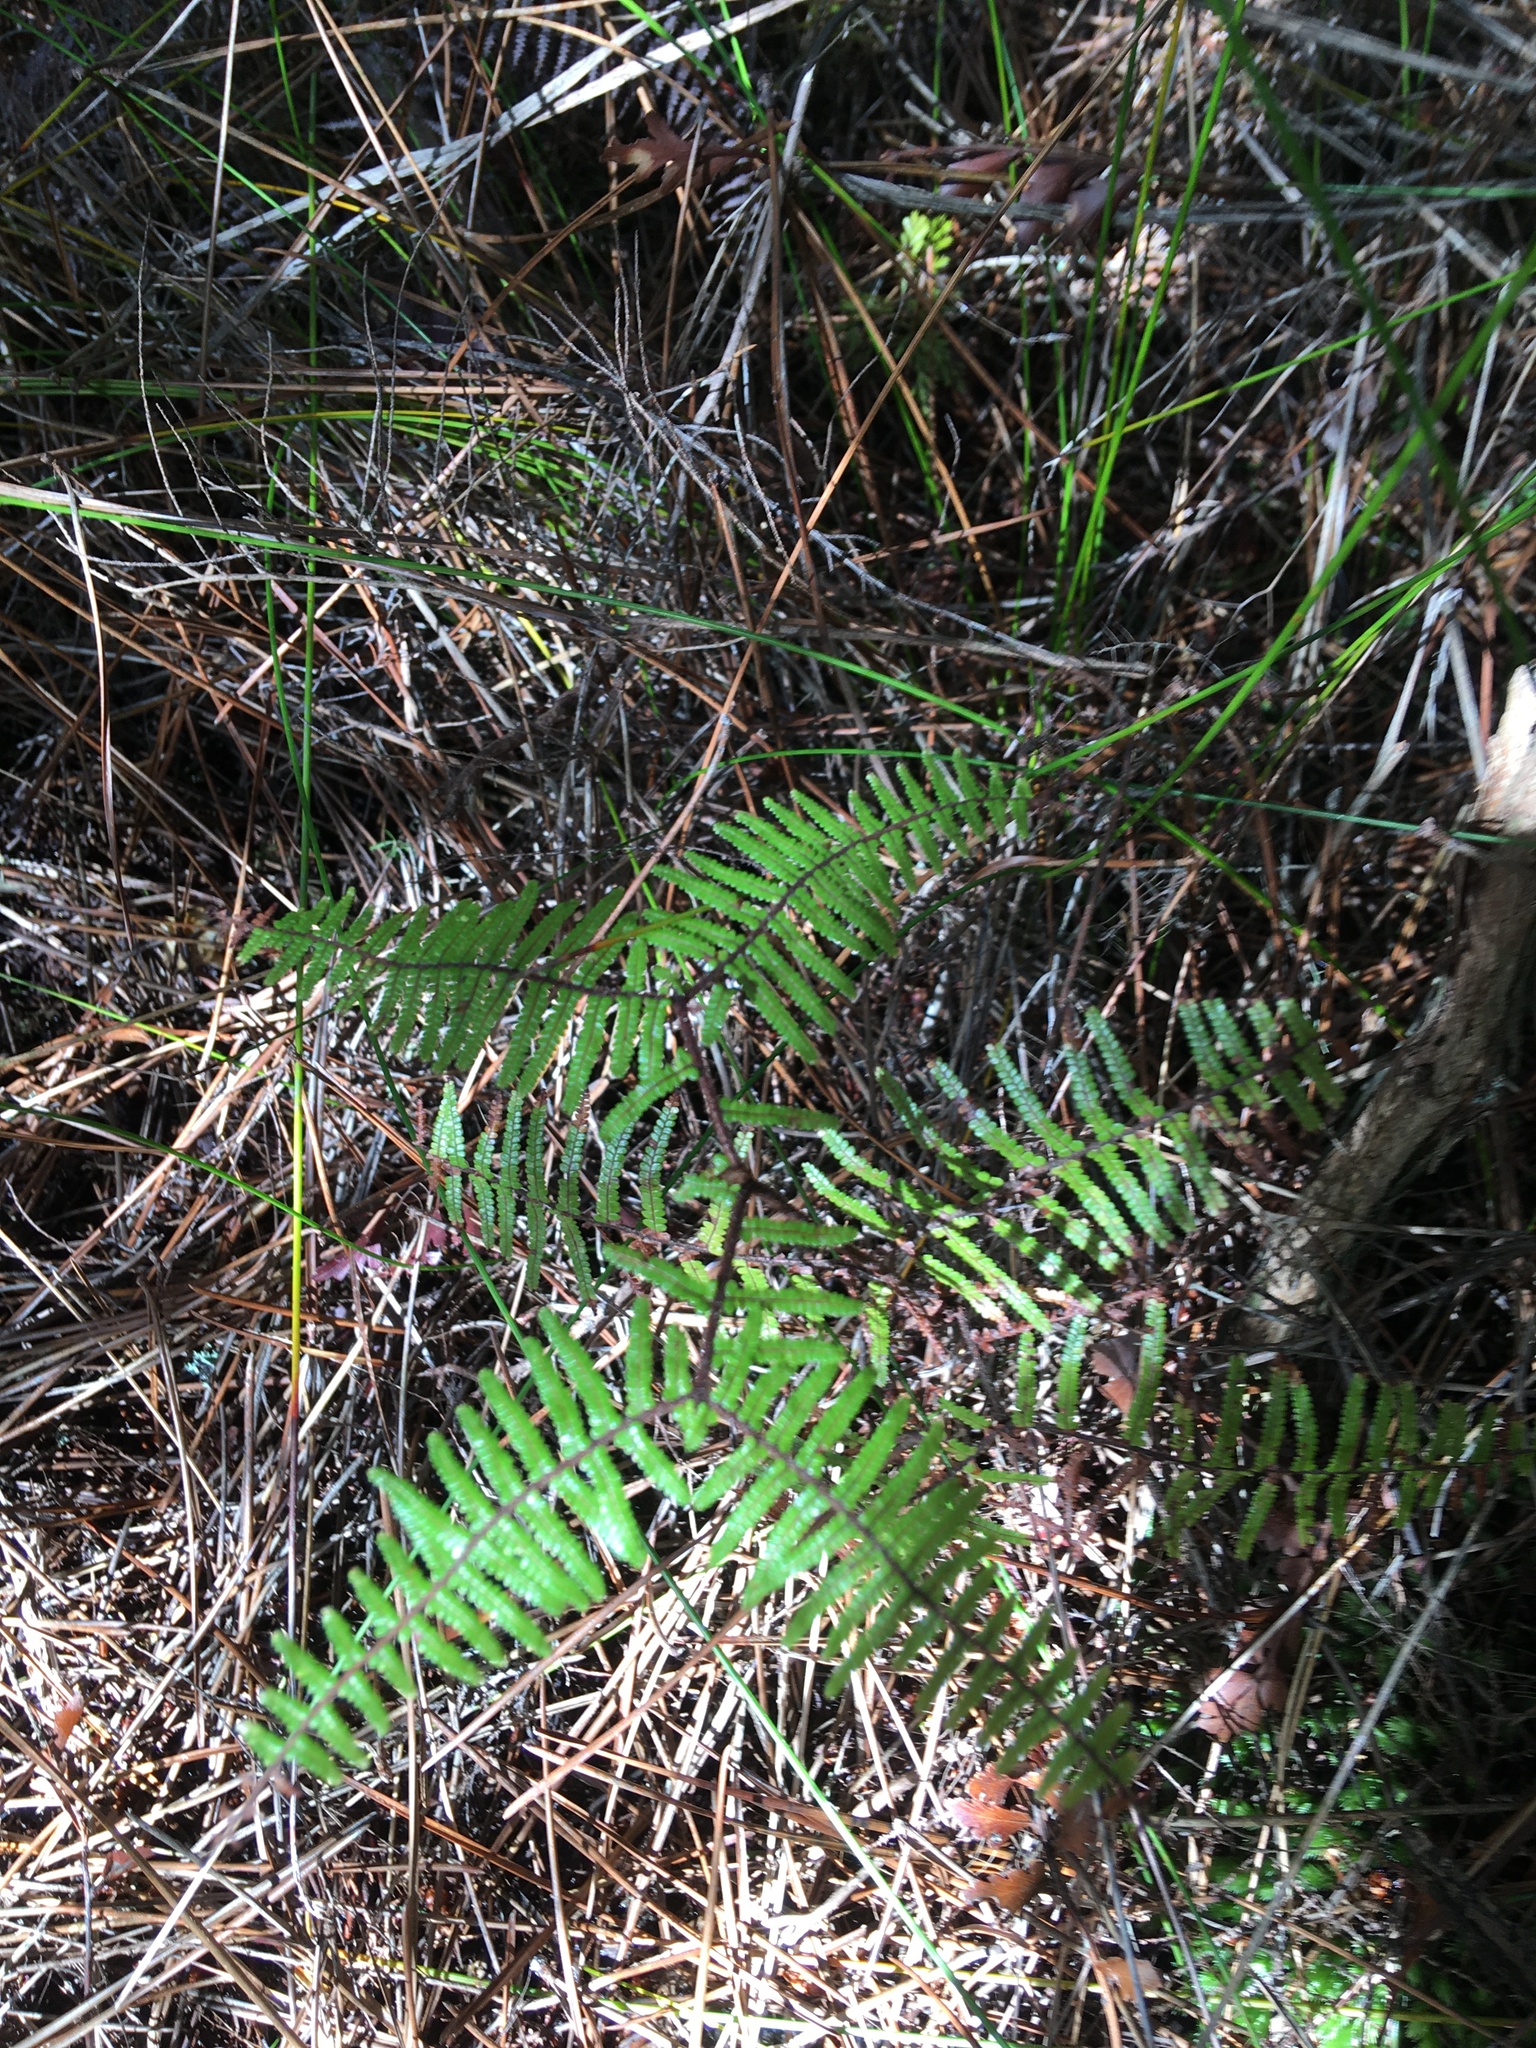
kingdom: Plantae
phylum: Tracheophyta
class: Polypodiopsida
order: Gleicheniales
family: Gleicheniaceae
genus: Gleichenia
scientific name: Gleichenia microphylla
